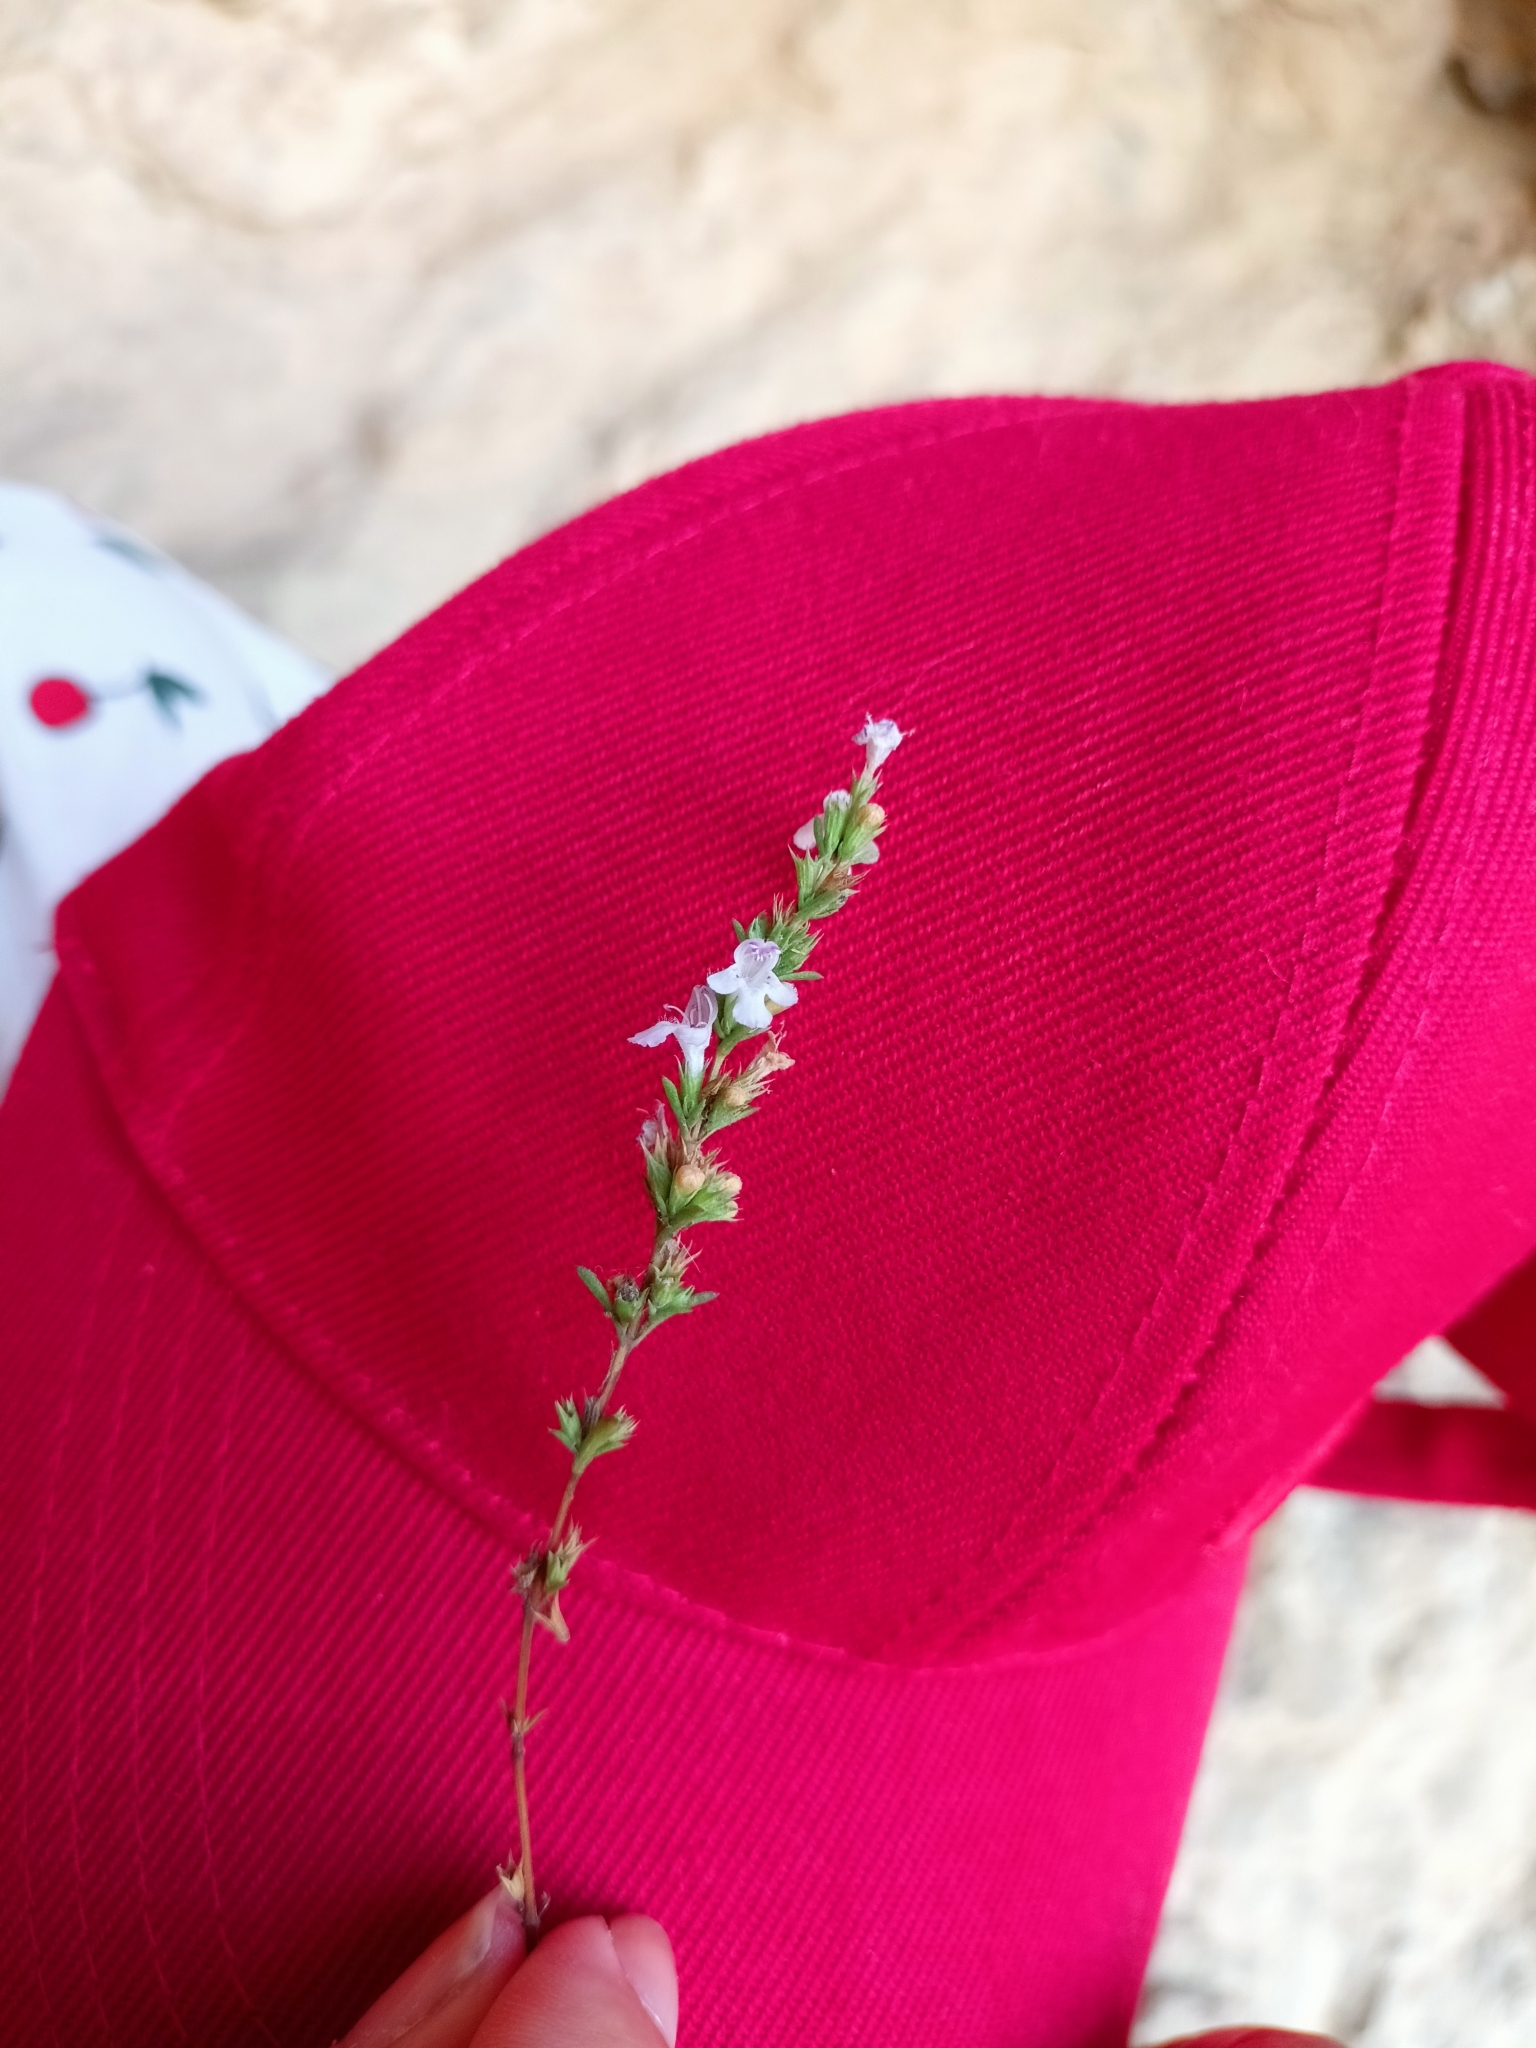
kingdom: Plantae
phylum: Tracheophyta
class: Magnoliopsida
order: Lamiales
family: Lamiaceae
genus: Satureja
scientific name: Satureja taurica
